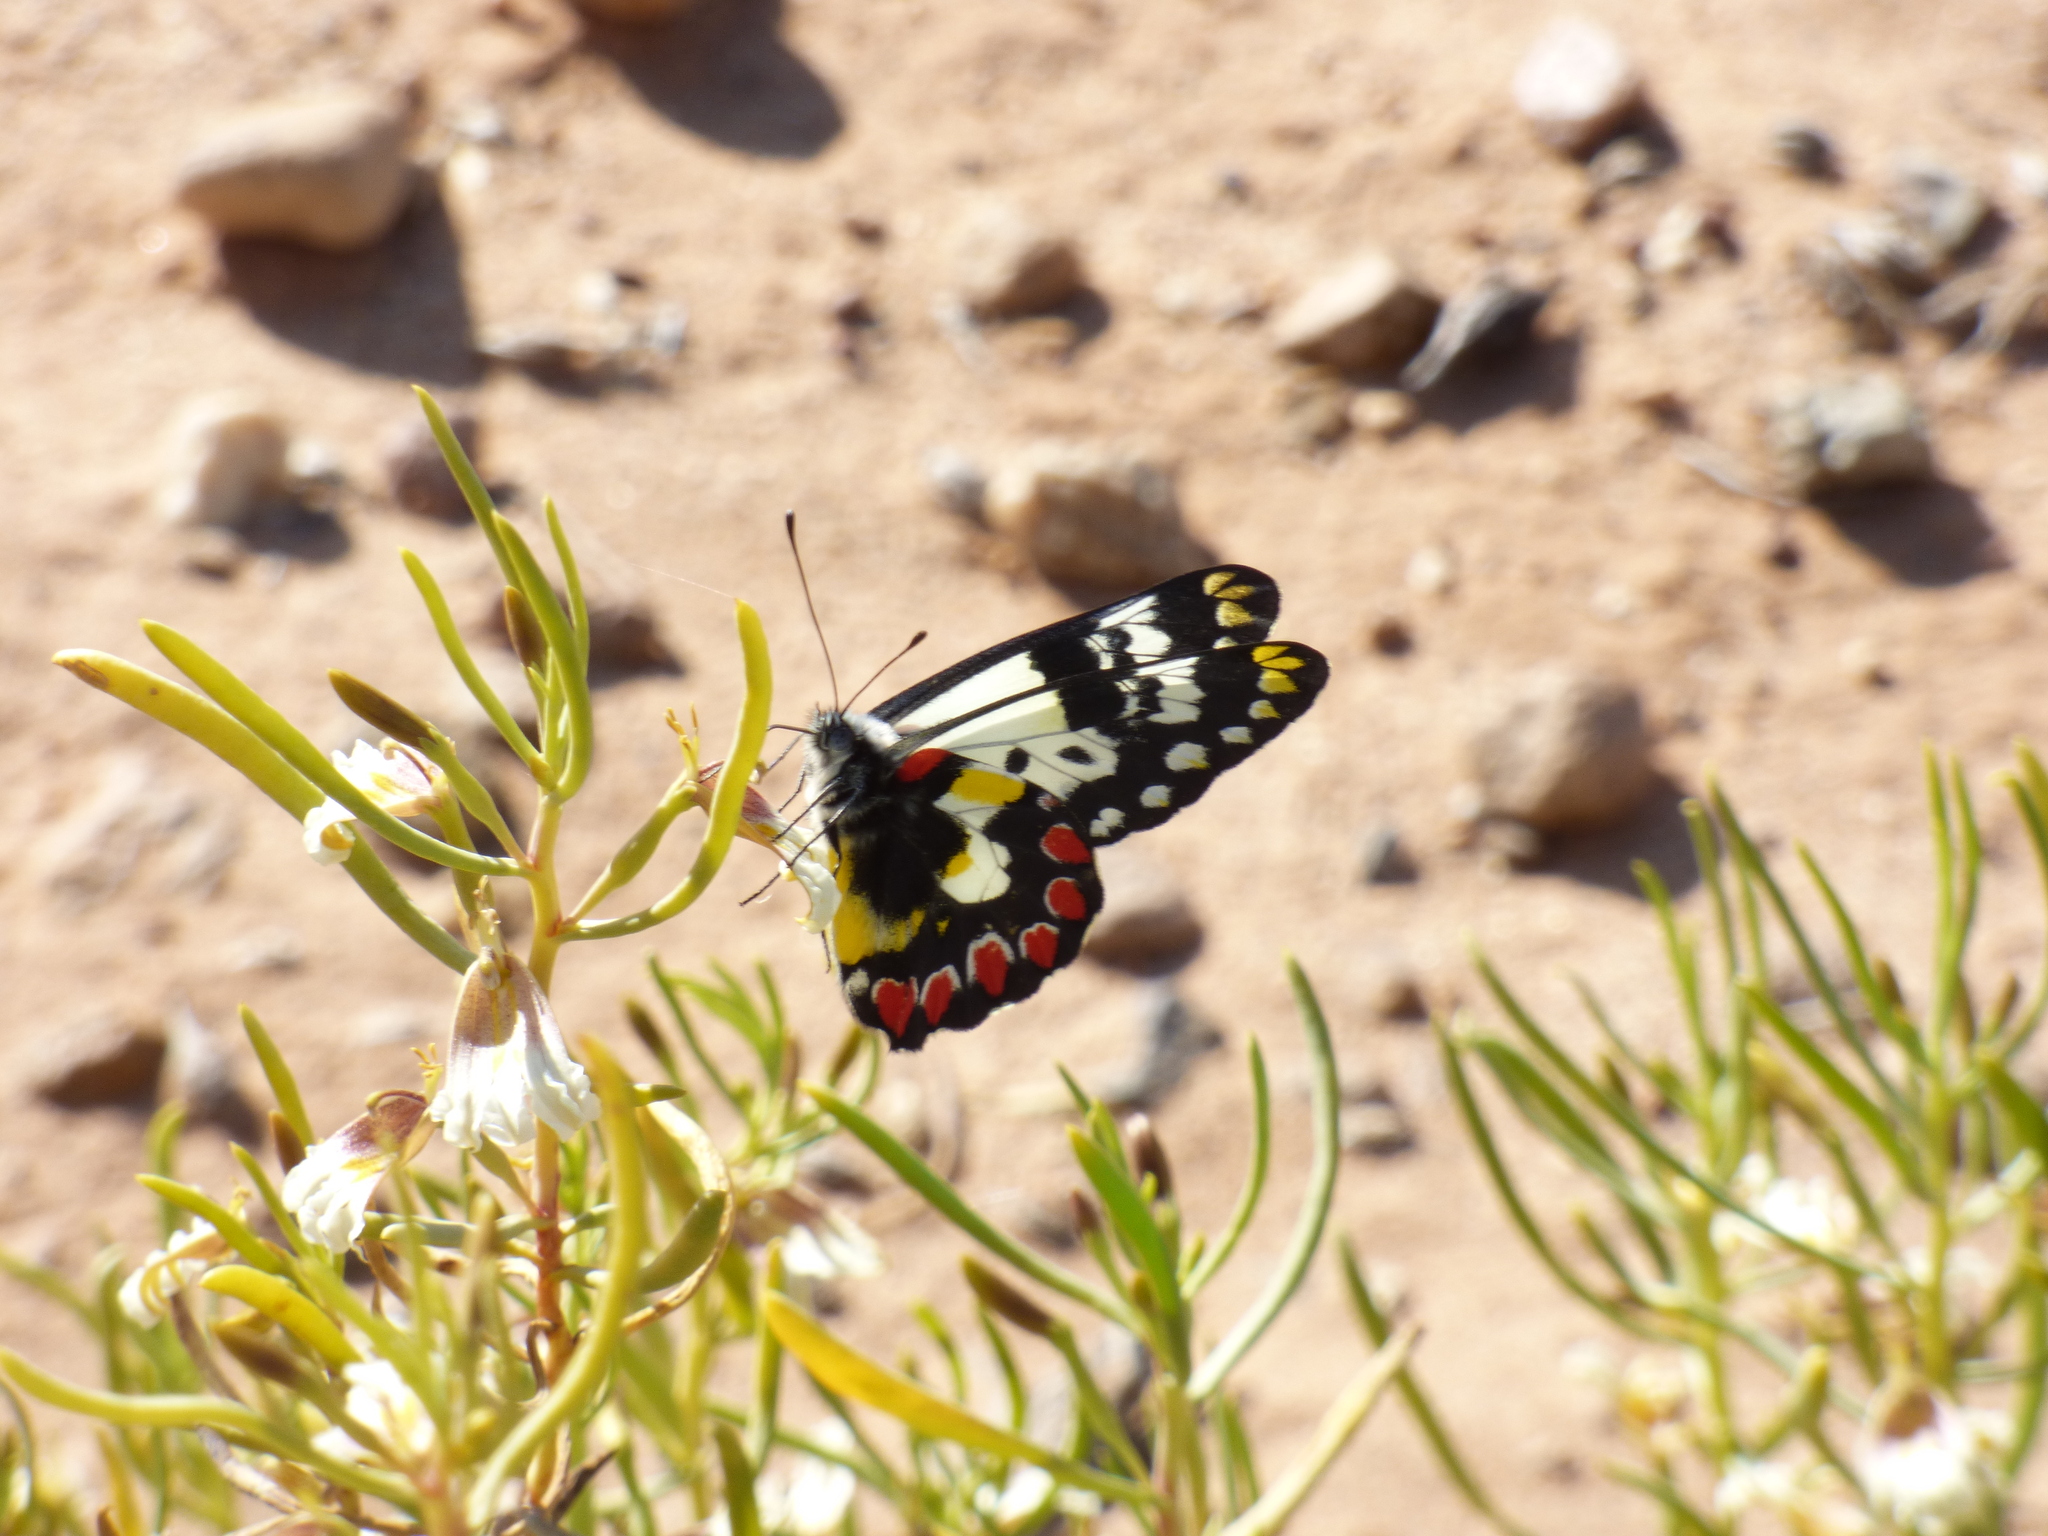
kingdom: Animalia
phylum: Arthropoda
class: Insecta
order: Lepidoptera
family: Pieridae
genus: Delias
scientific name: Delias aganippe
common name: Red-spotted jezebel
